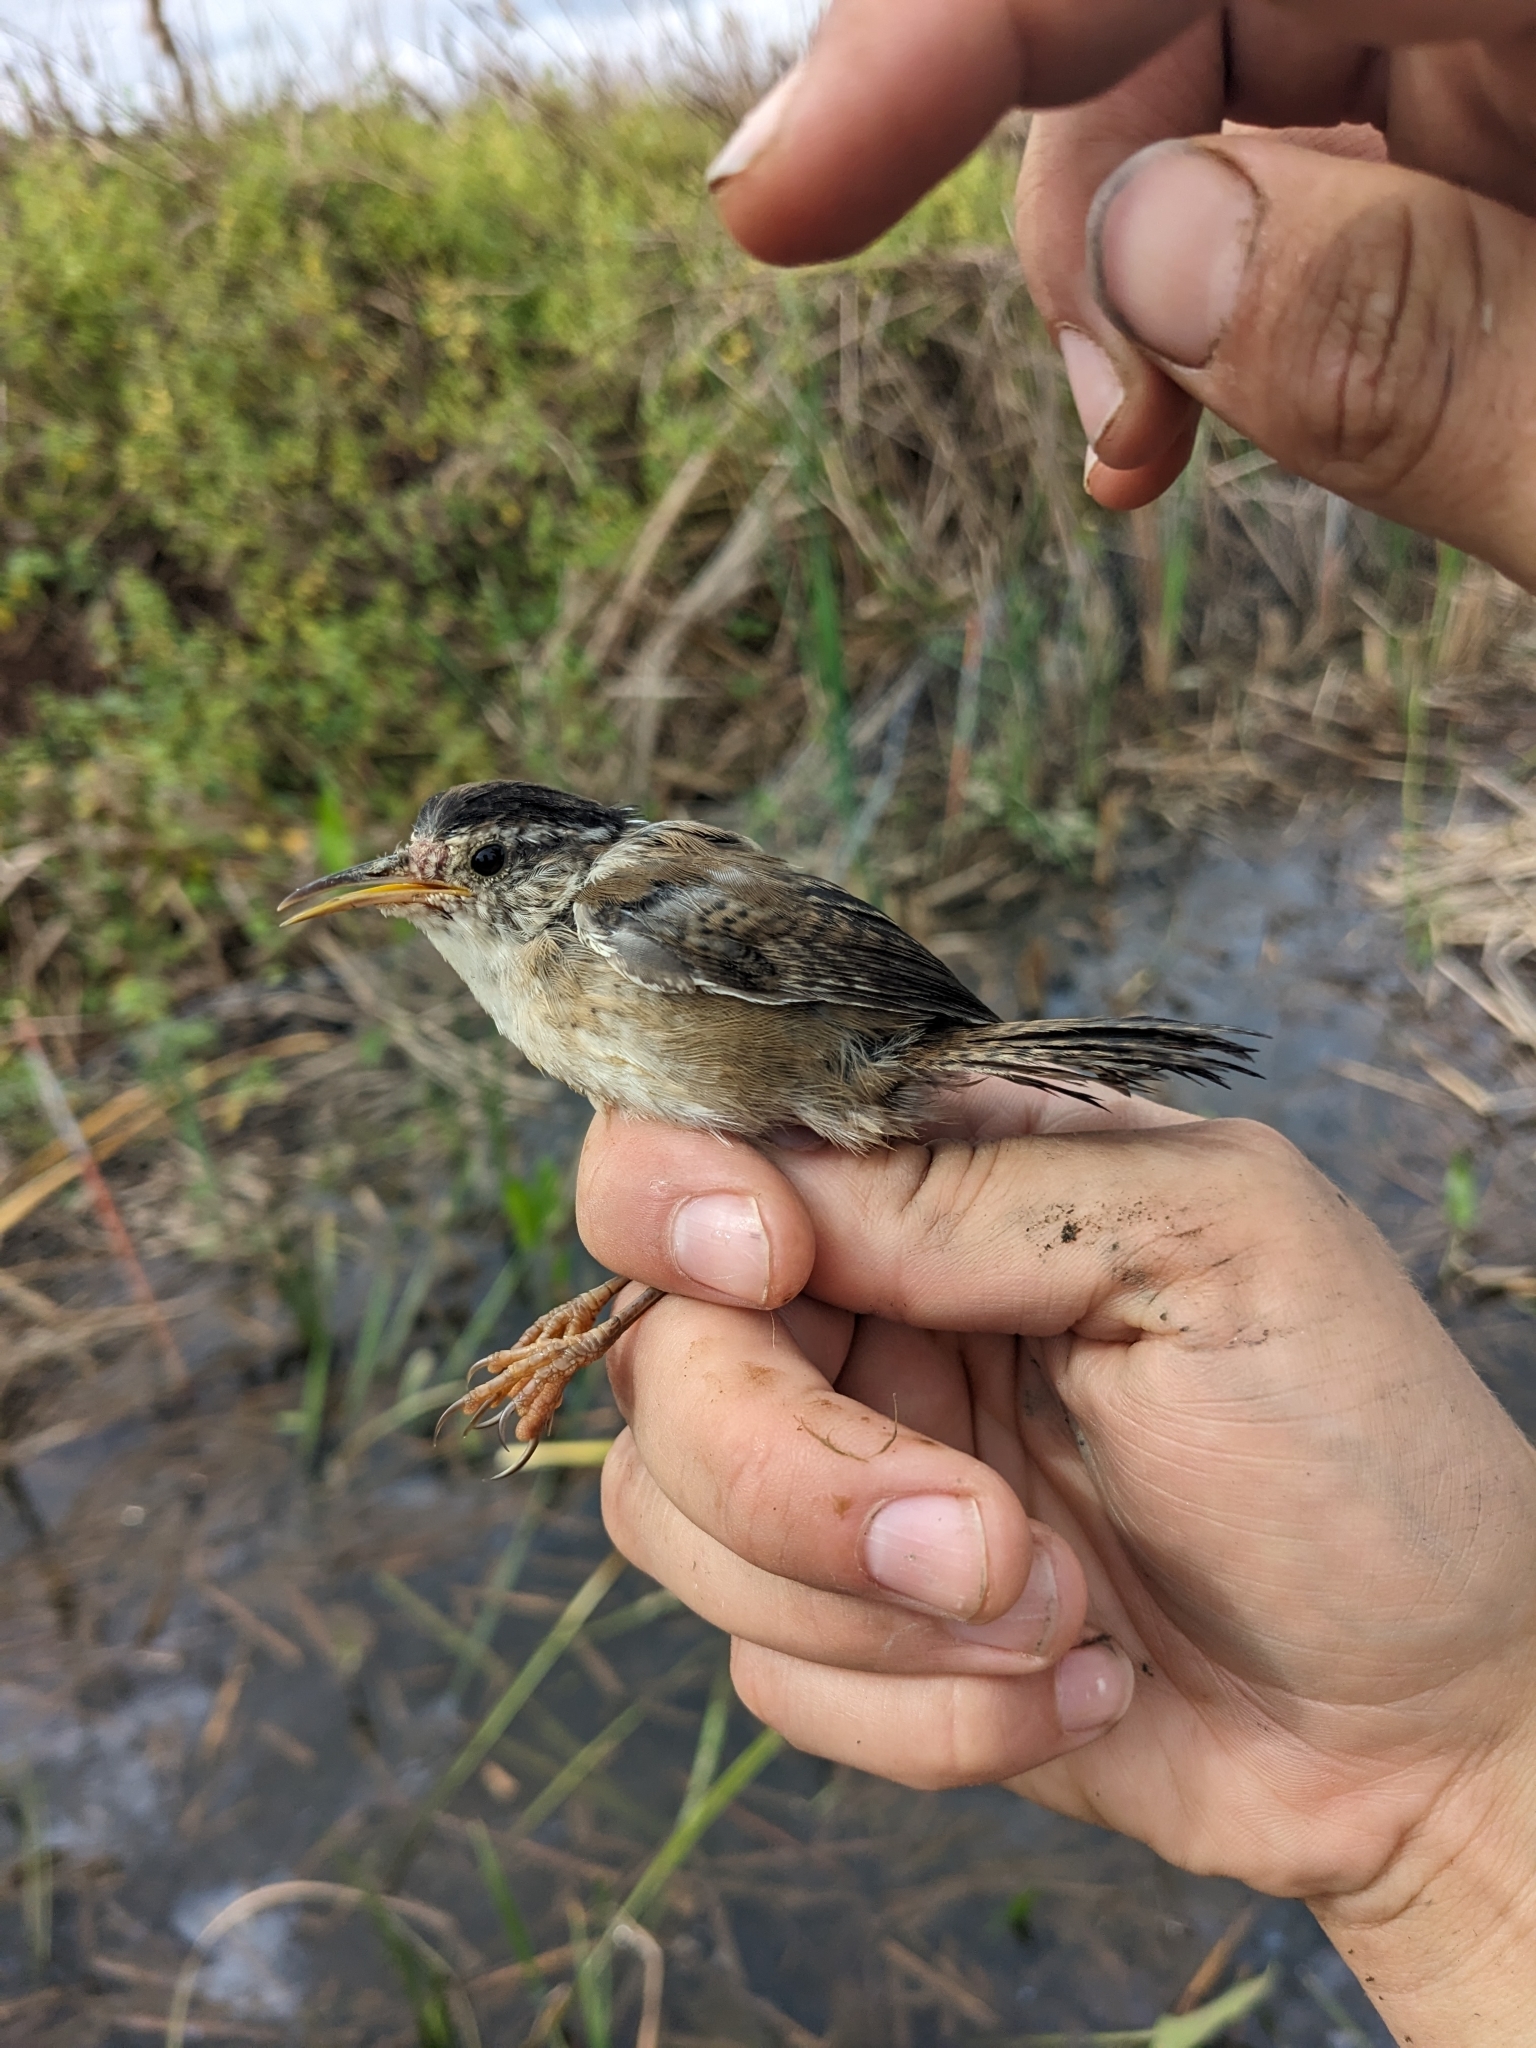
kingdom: Animalia
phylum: Chordata
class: Aves
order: Passeriformes
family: Troglodytidae
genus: Cistothorus
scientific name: Cistothorus palustris
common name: Marsh wren
